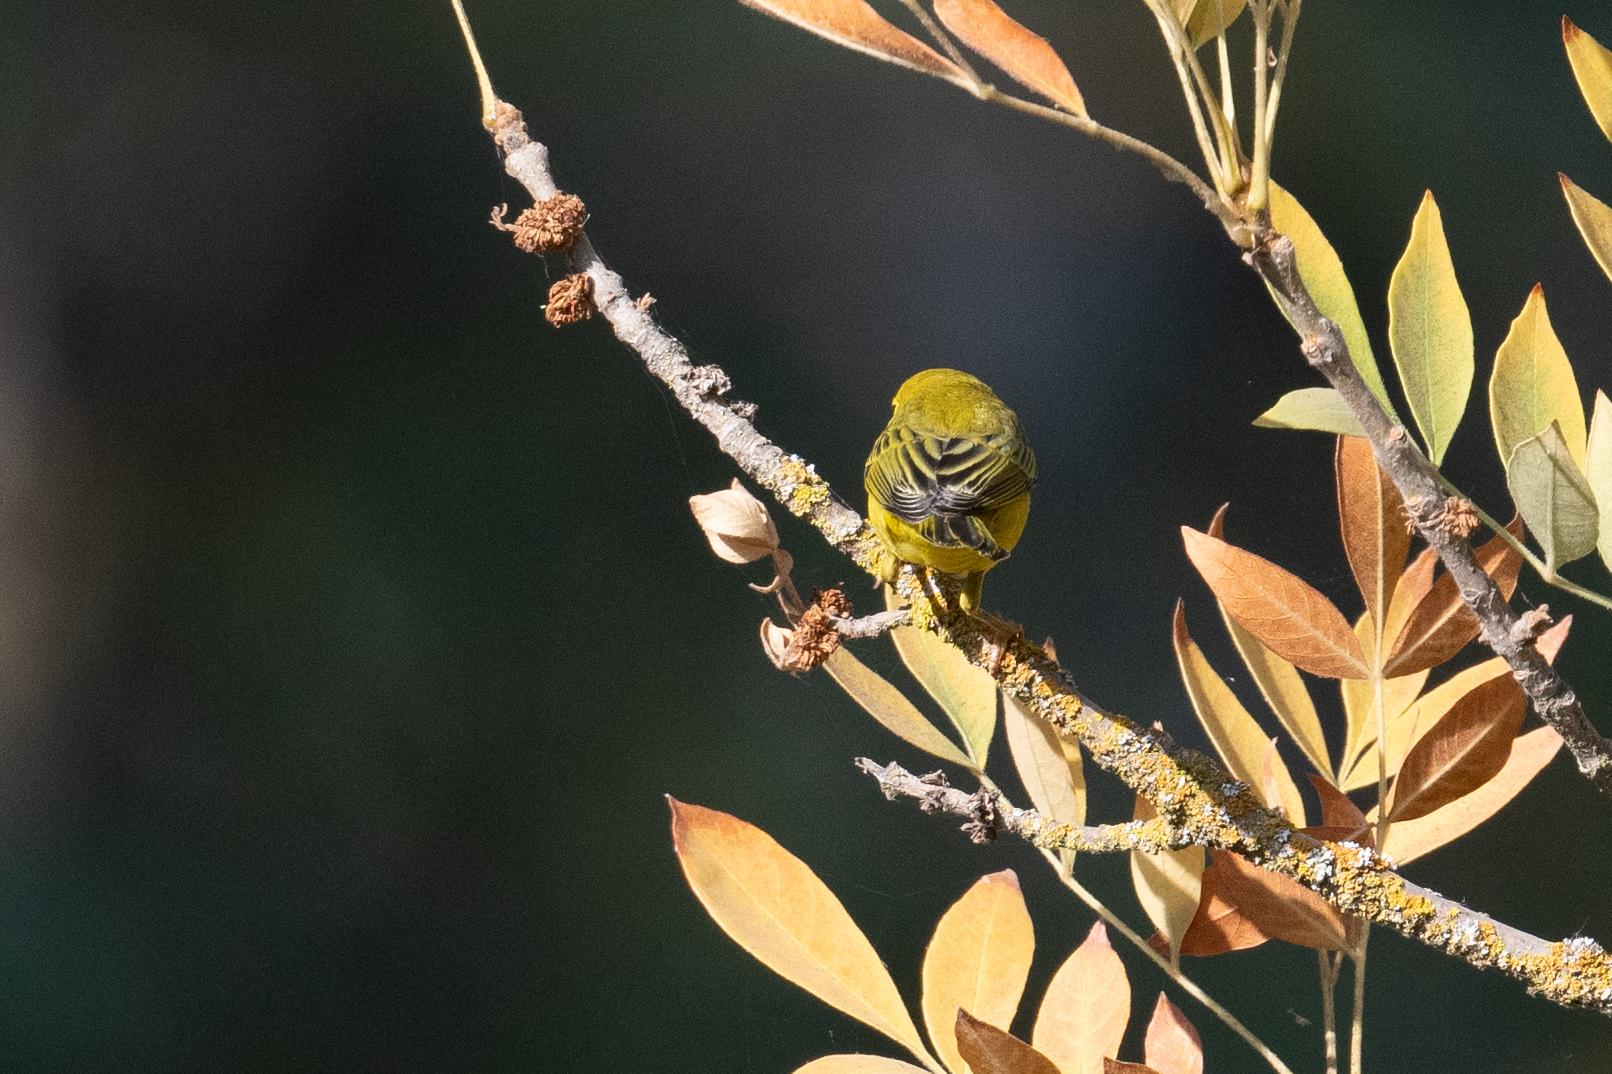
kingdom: Animalia
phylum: Chordata
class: Aves
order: Passeriformes
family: Parulidae
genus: Setophaga
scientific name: Setophaga petechia
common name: Yellow warbler
